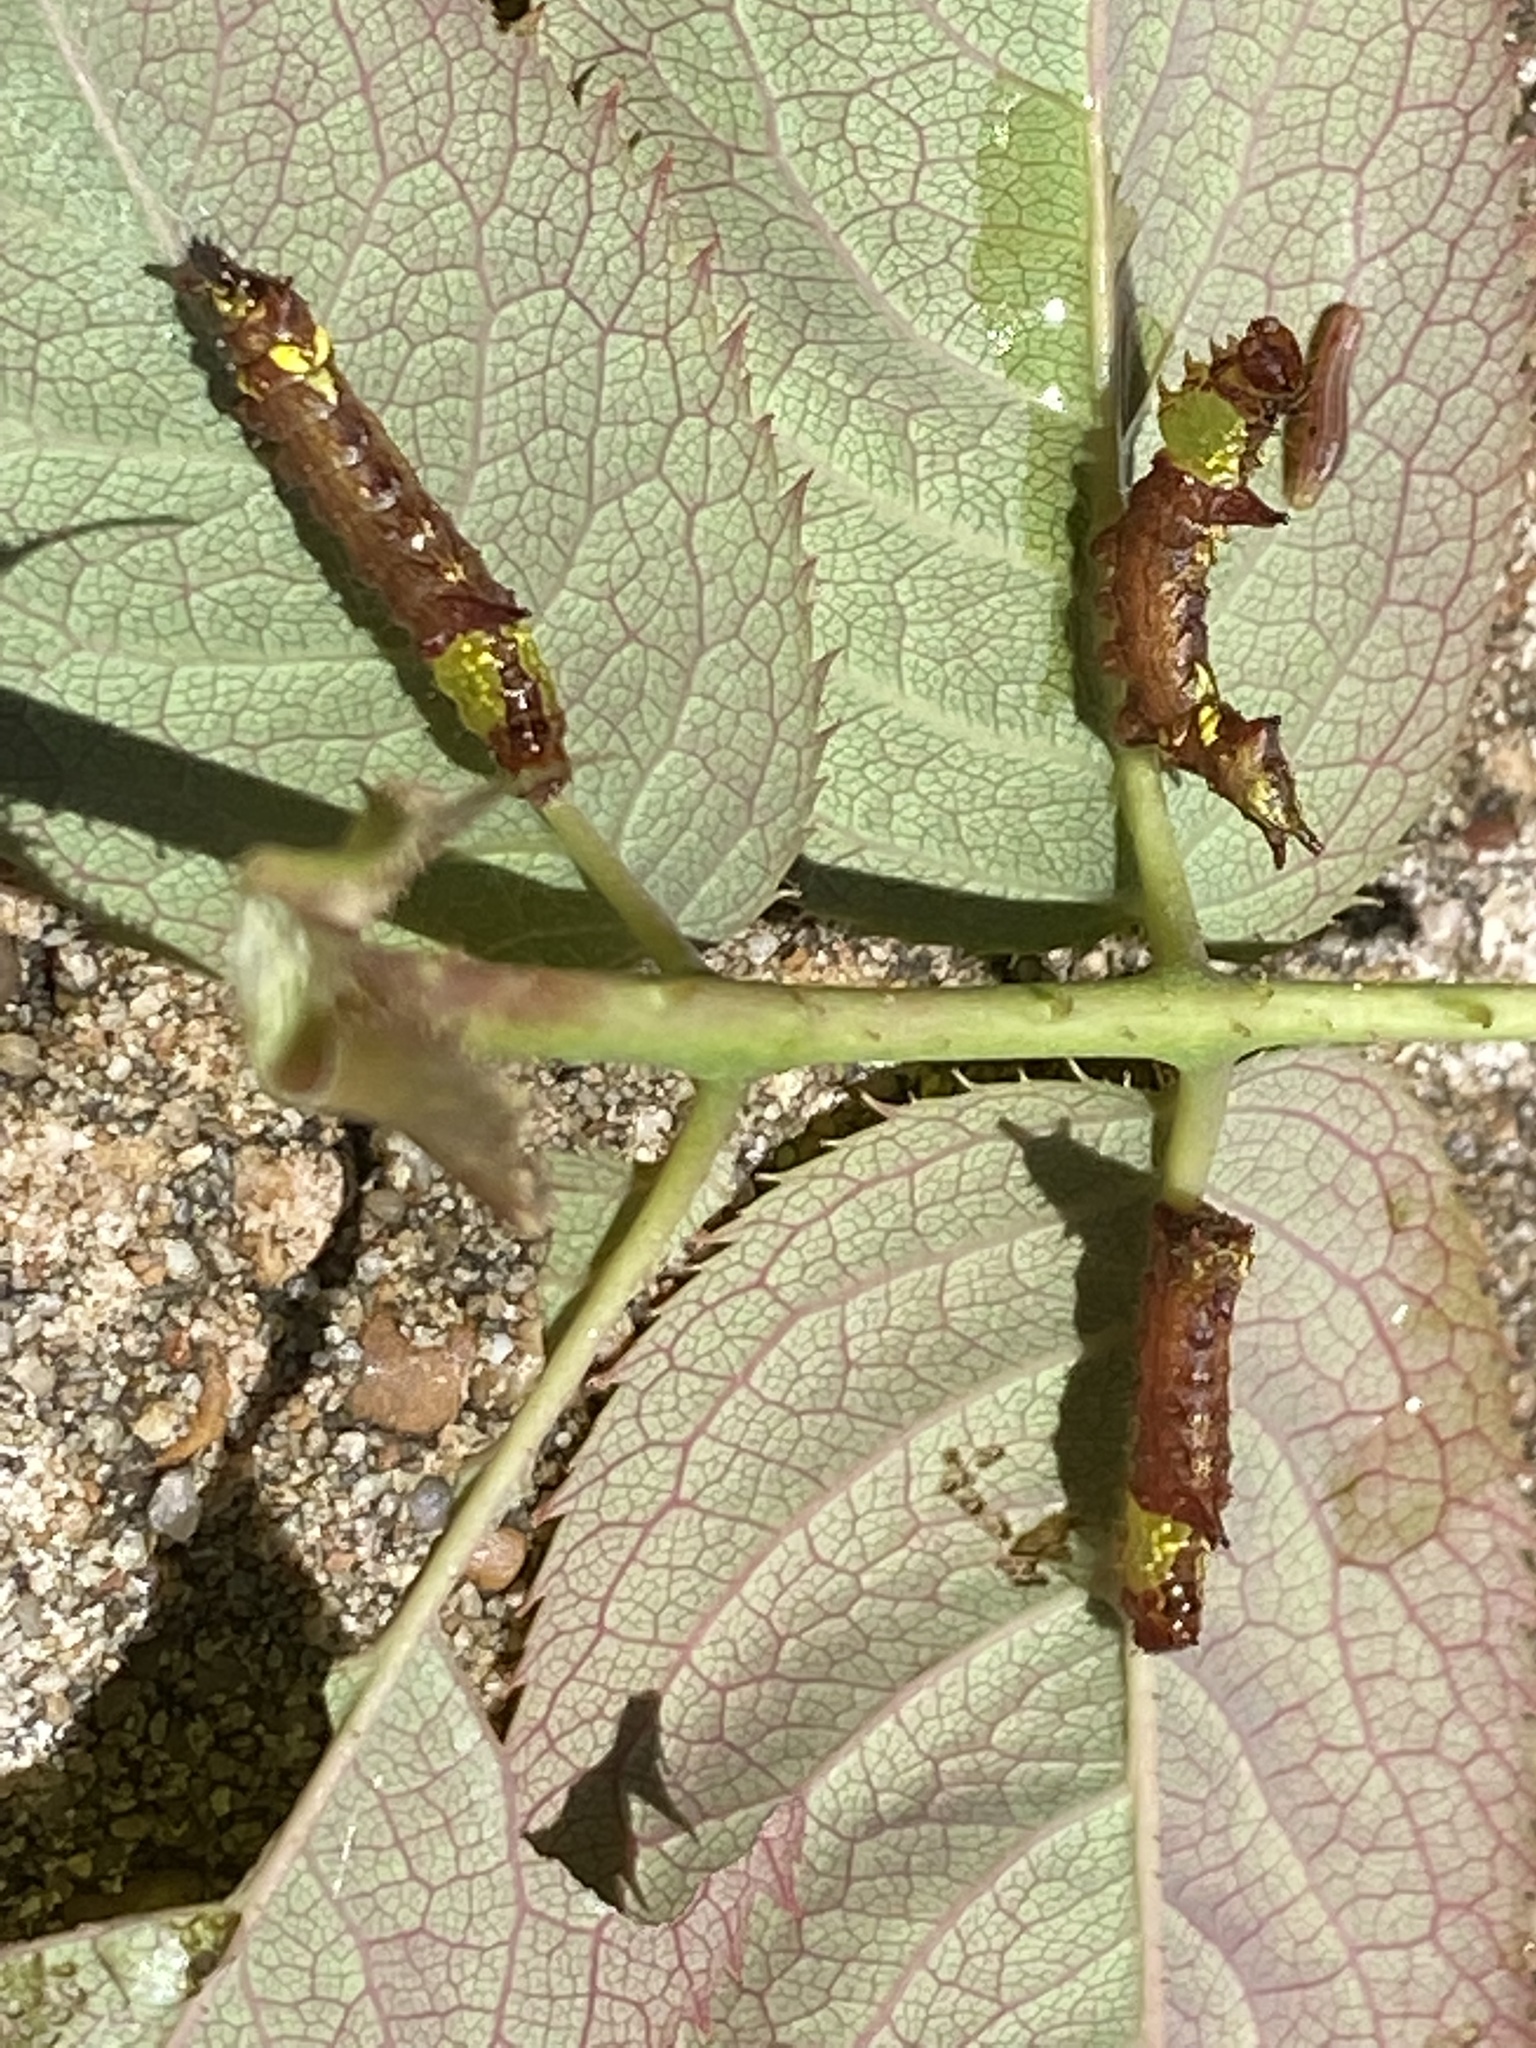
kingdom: Animalia
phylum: Arthropoda
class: Insecta
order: Lepidoptera
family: Notodontidae
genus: Schizura
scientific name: Schizura
